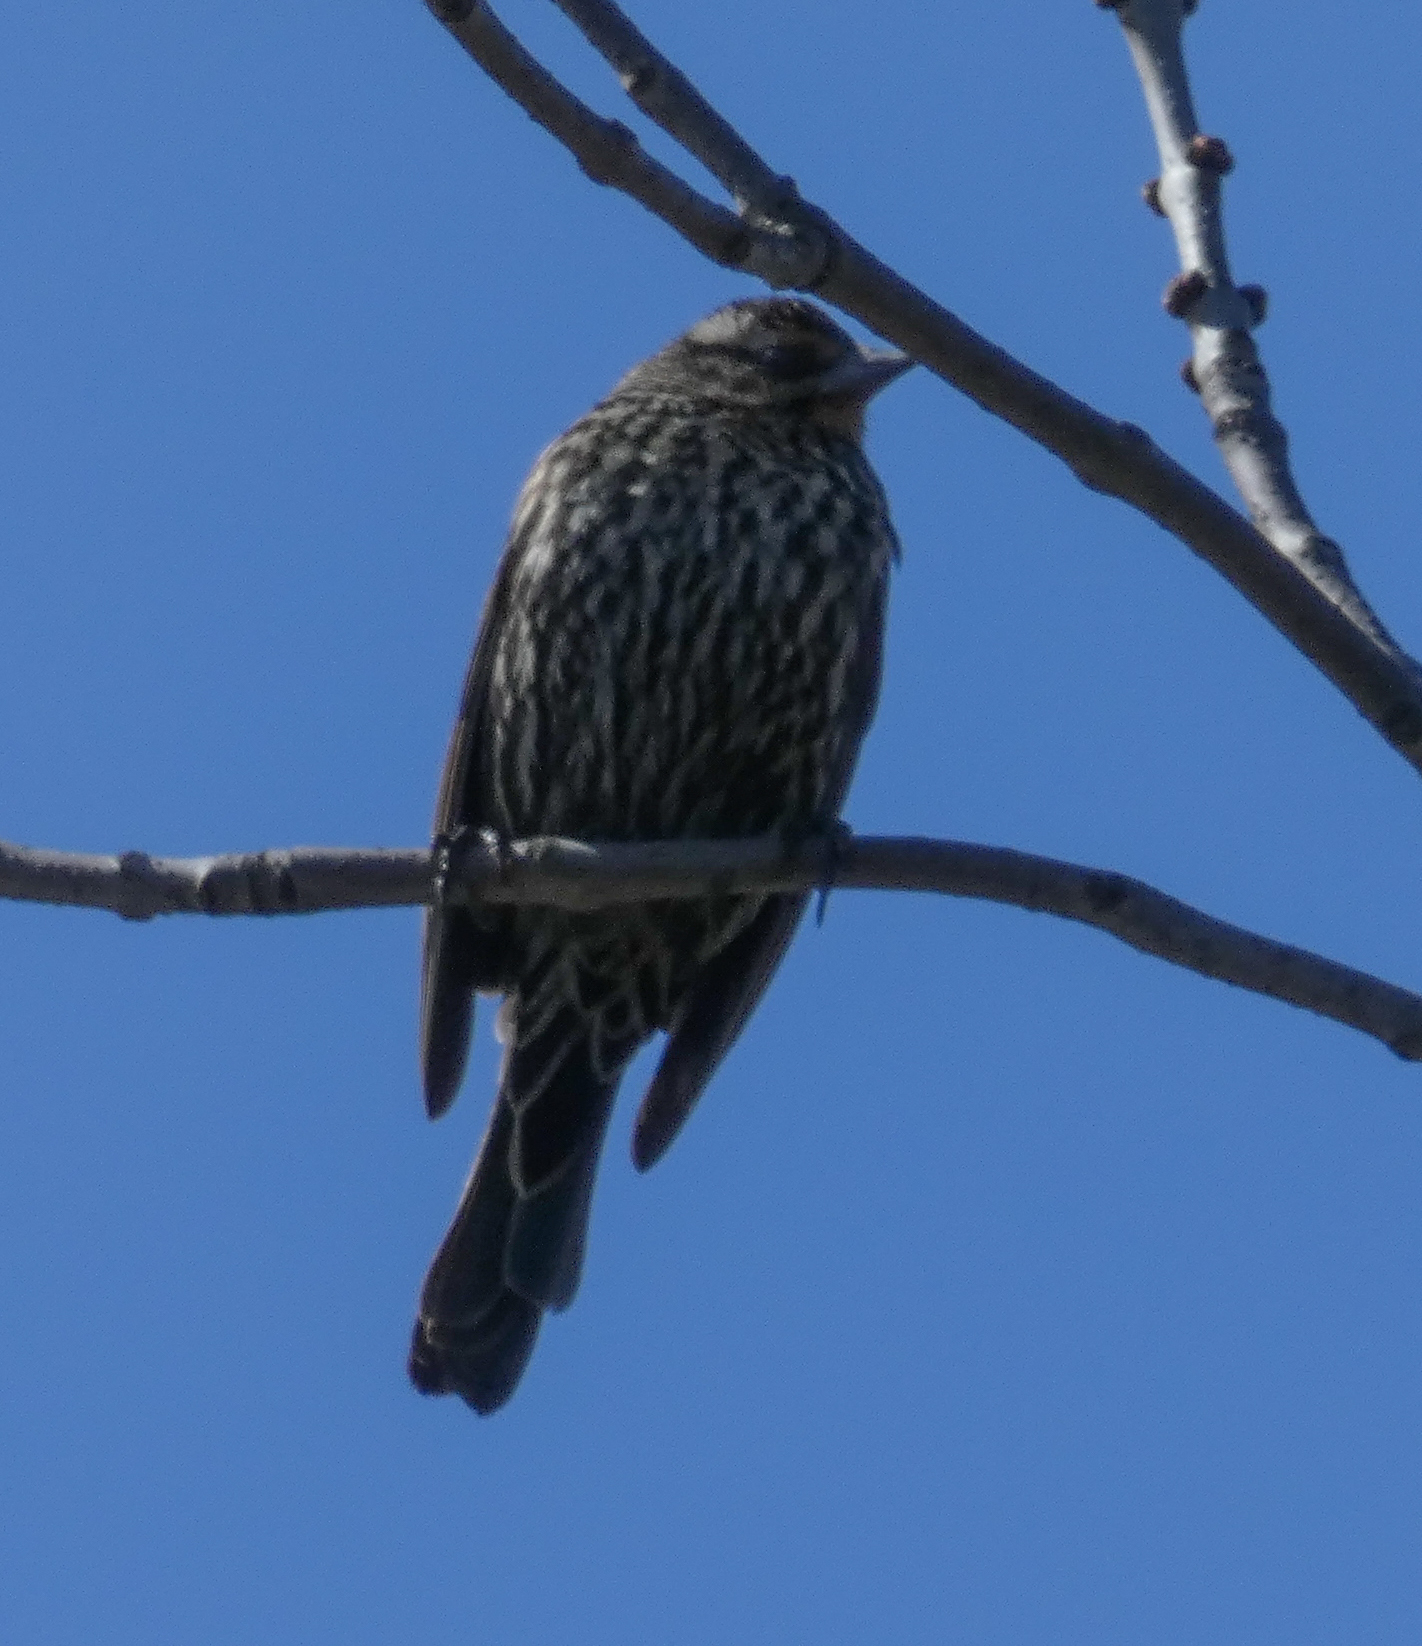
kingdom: Animalia
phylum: Chordata
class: Aves
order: Passeriformes
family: Icteridae
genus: Agelaius
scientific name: Agelaius phoeniceus
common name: Red-winged blackbird
